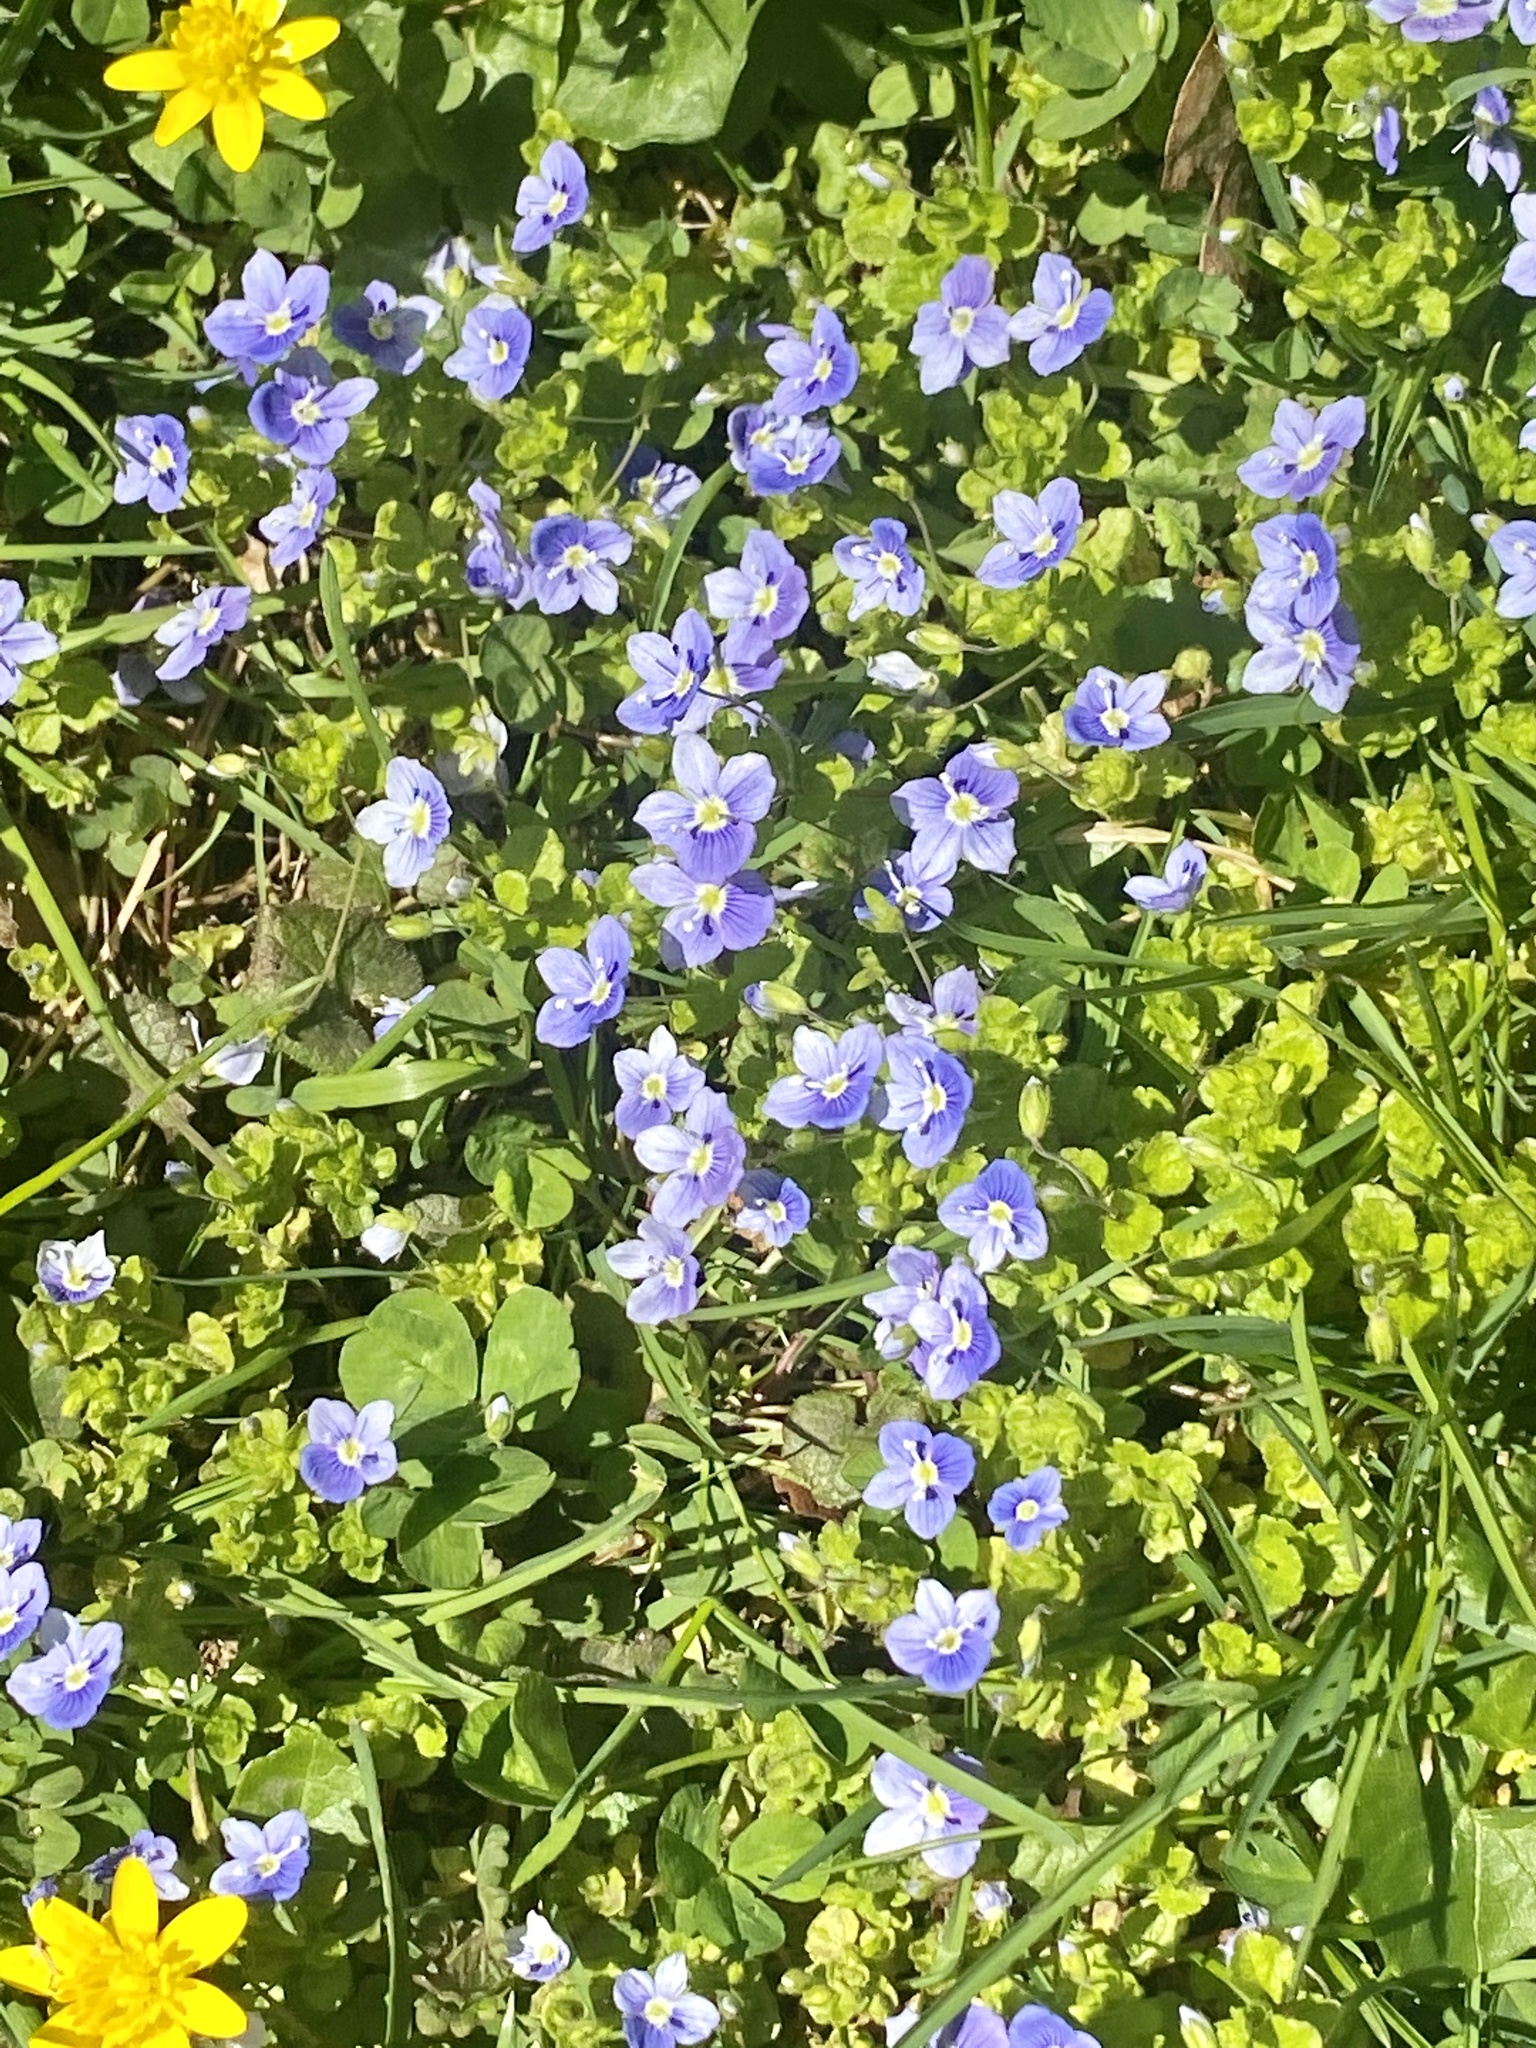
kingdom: Plantae
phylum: Tracheophyta
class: Magnoliopsida
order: Lamiales
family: Plantaginaceae
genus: Veronica
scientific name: Veronica filiformis
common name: Slender speedwell
